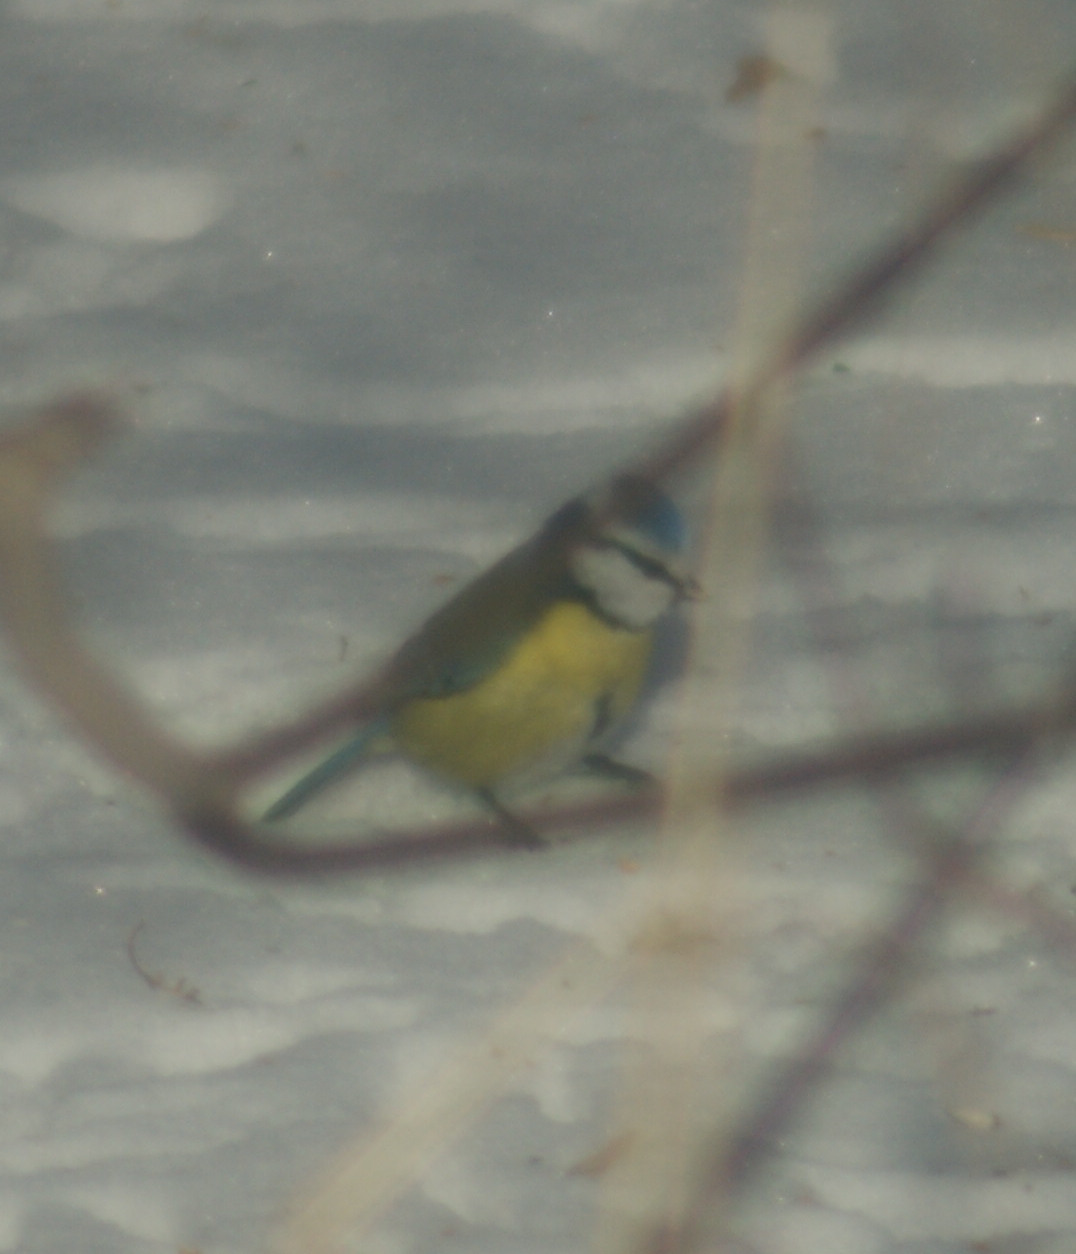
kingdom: Animalia
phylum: Chordata
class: Aves
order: Passeriformes
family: Paridae
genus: Cyanistes
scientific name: Cyanistes caeruleus
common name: Eurasian blue tit
